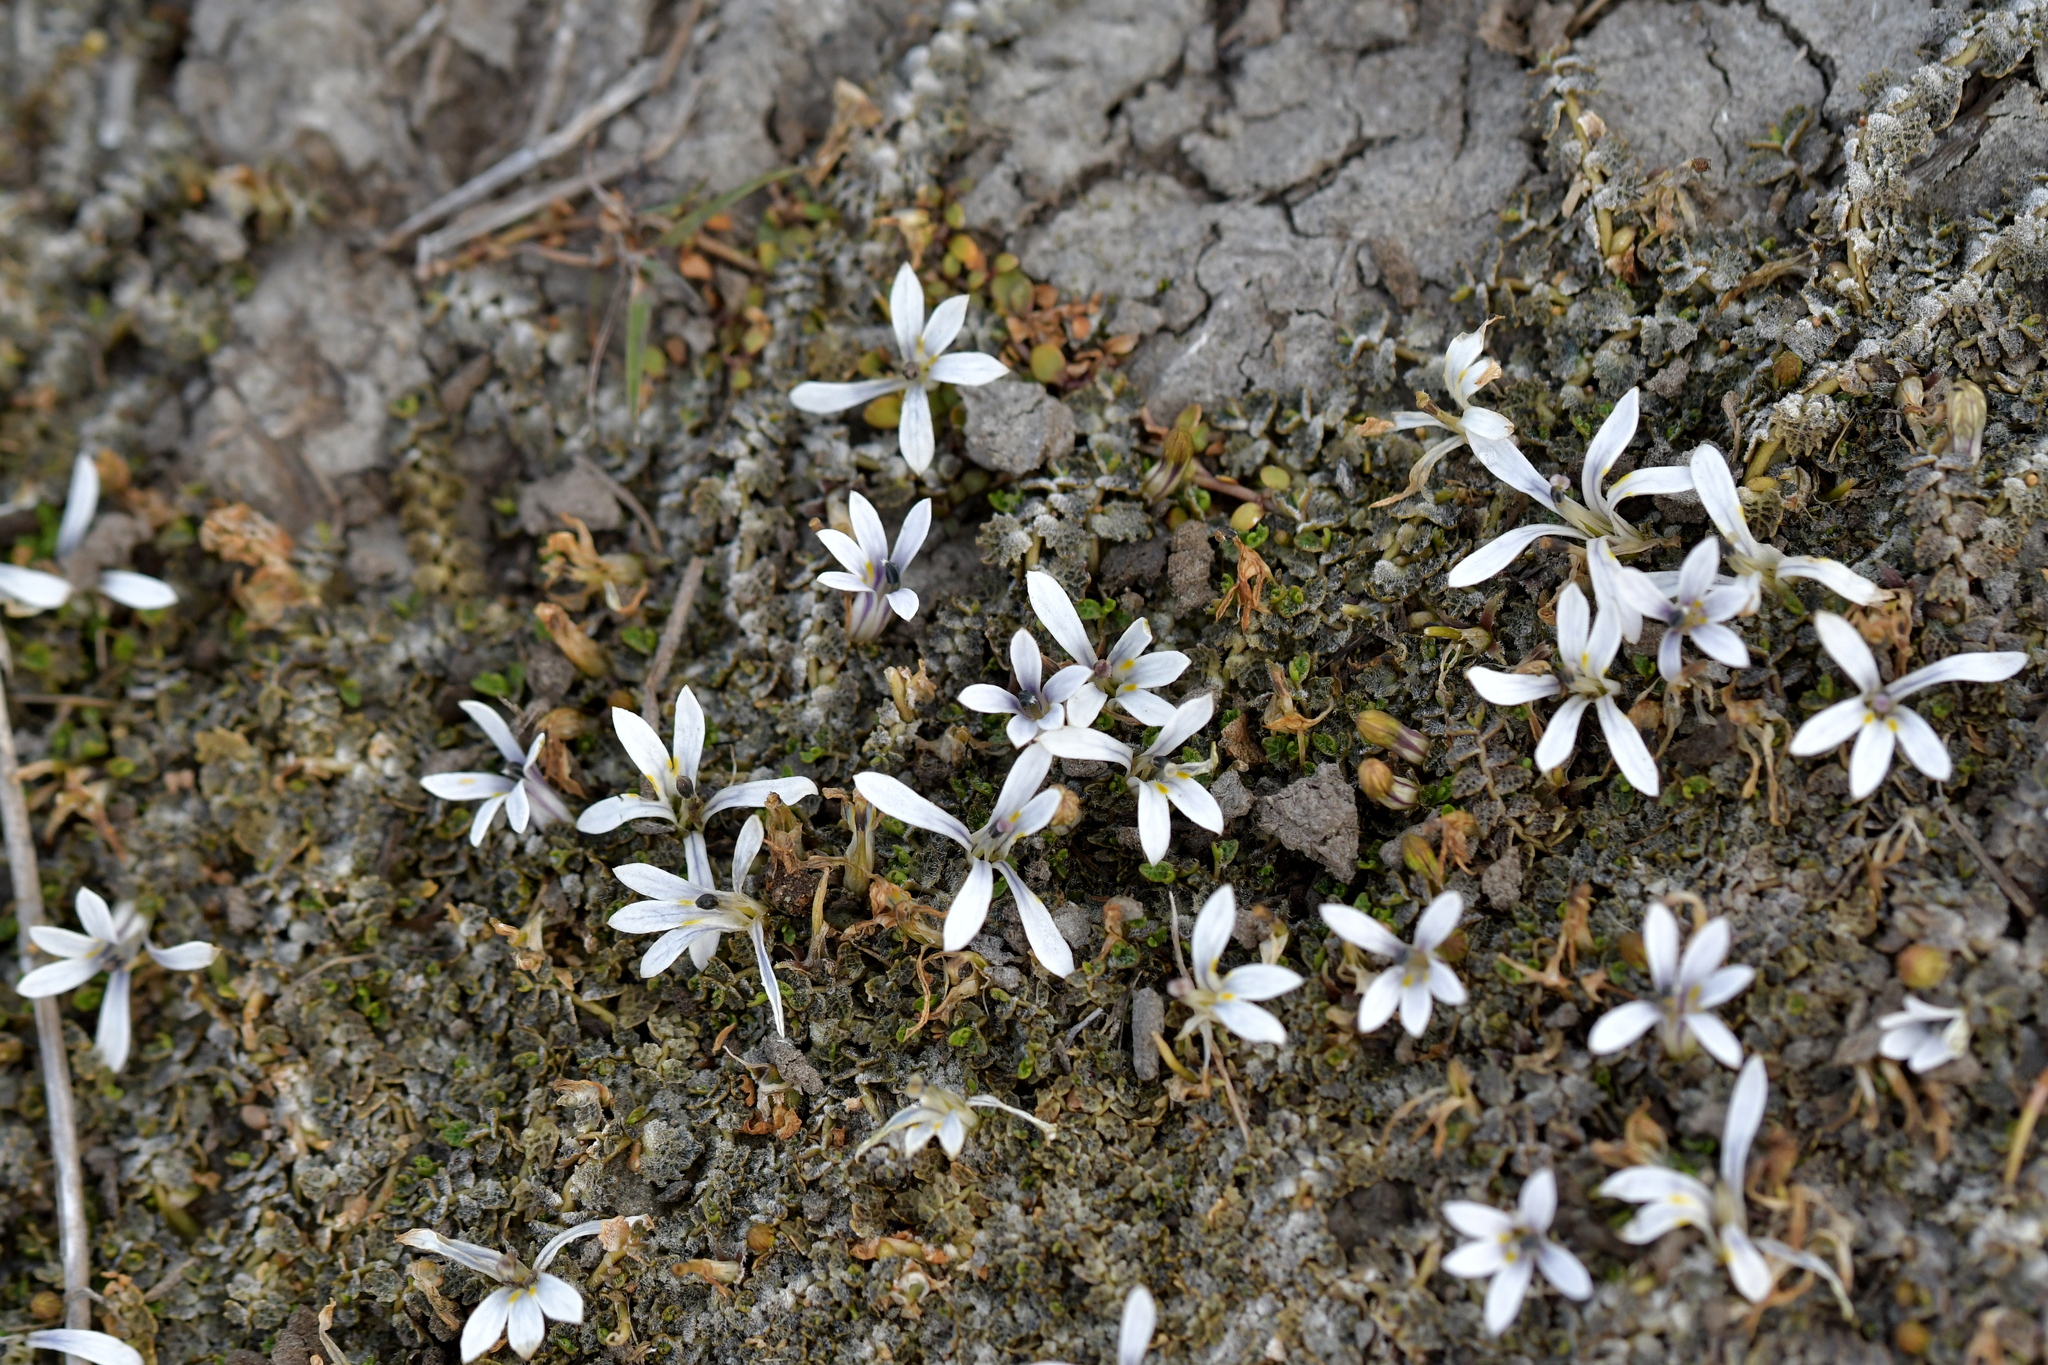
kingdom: Plantae
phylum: Tracheophyta
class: Magnoliopsida
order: Asterales
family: Campanulaceae
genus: Lobelia
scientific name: Lobelia perpusilla
